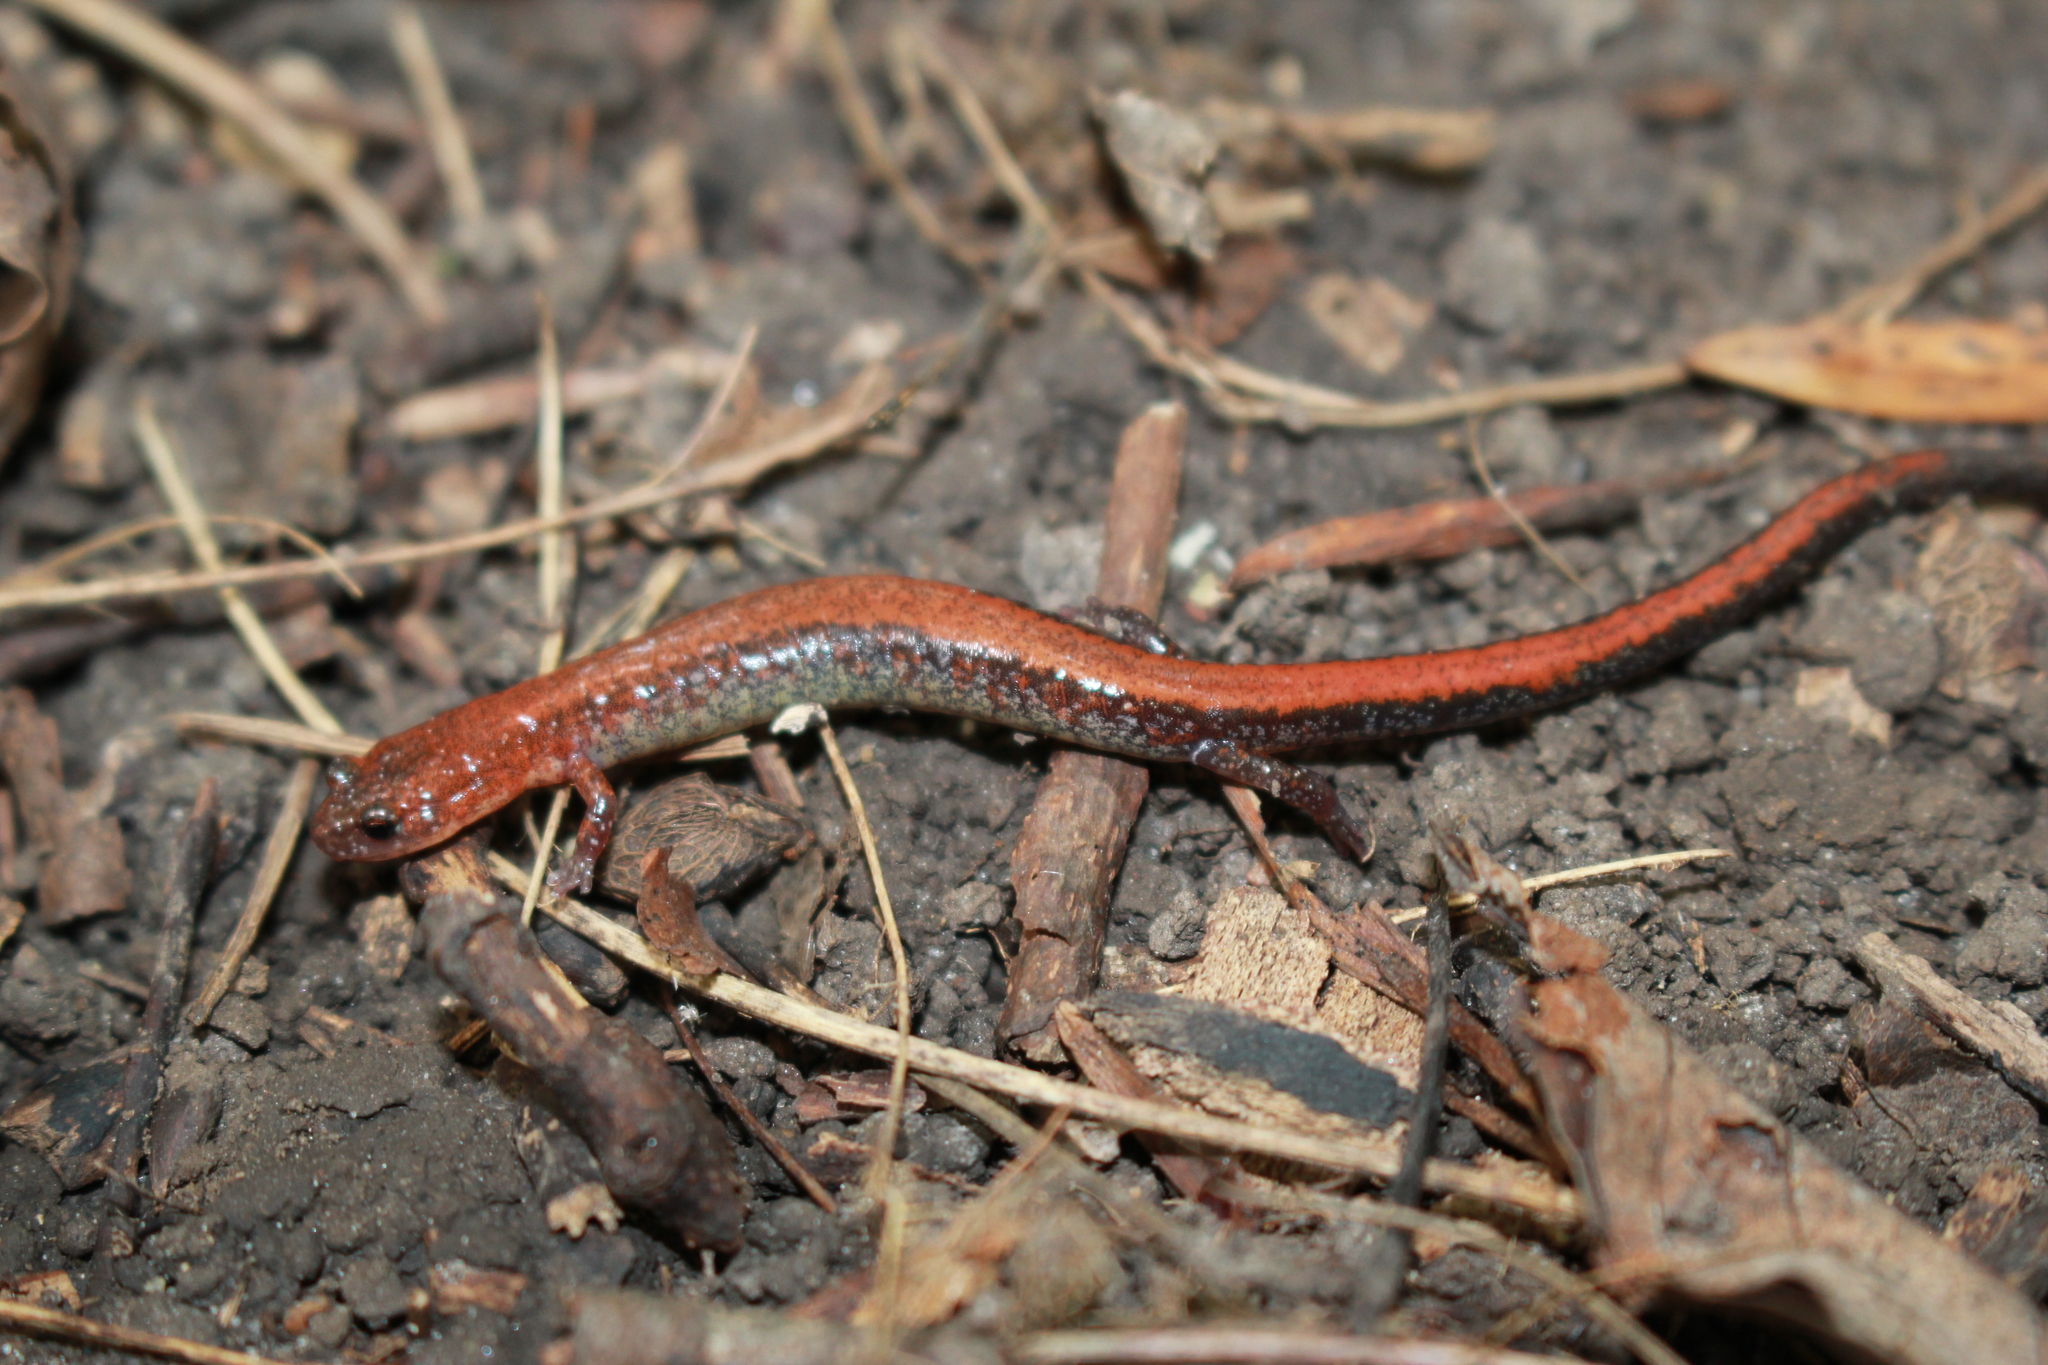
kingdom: Animalia
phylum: Chordata
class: Amphibia
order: Caudata
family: Plethodontidae
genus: Plethodon
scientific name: Plethodon cinereus
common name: Redback salamander
